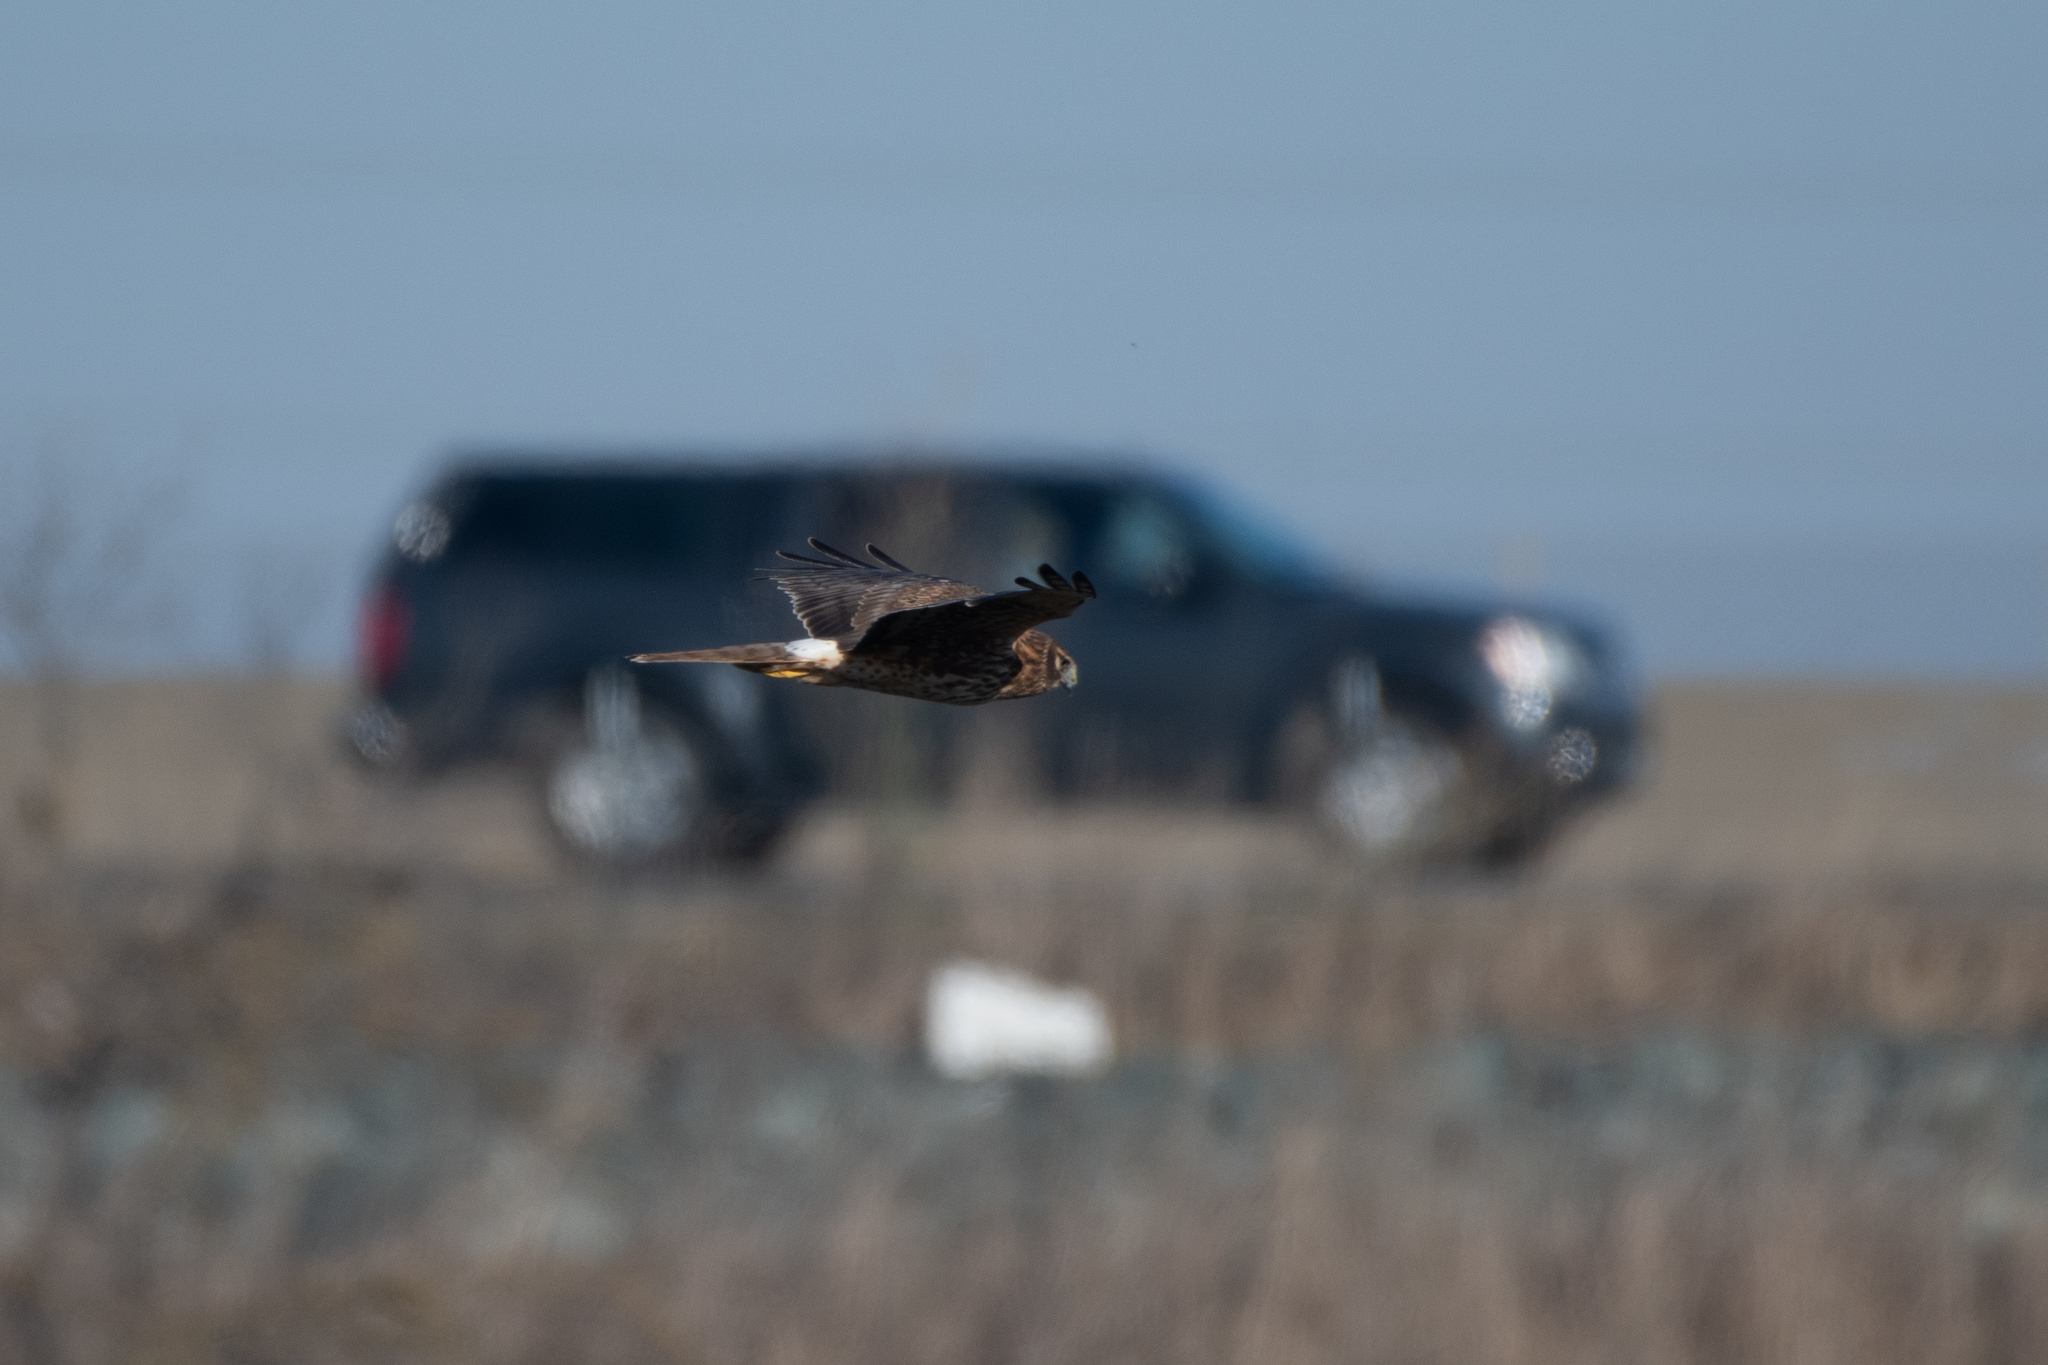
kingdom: Animalia
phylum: Chordata
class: Aves
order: Accipitriformes
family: Accipitridae
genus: Circus
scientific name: Circus cyaneus
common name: Hen harrier
